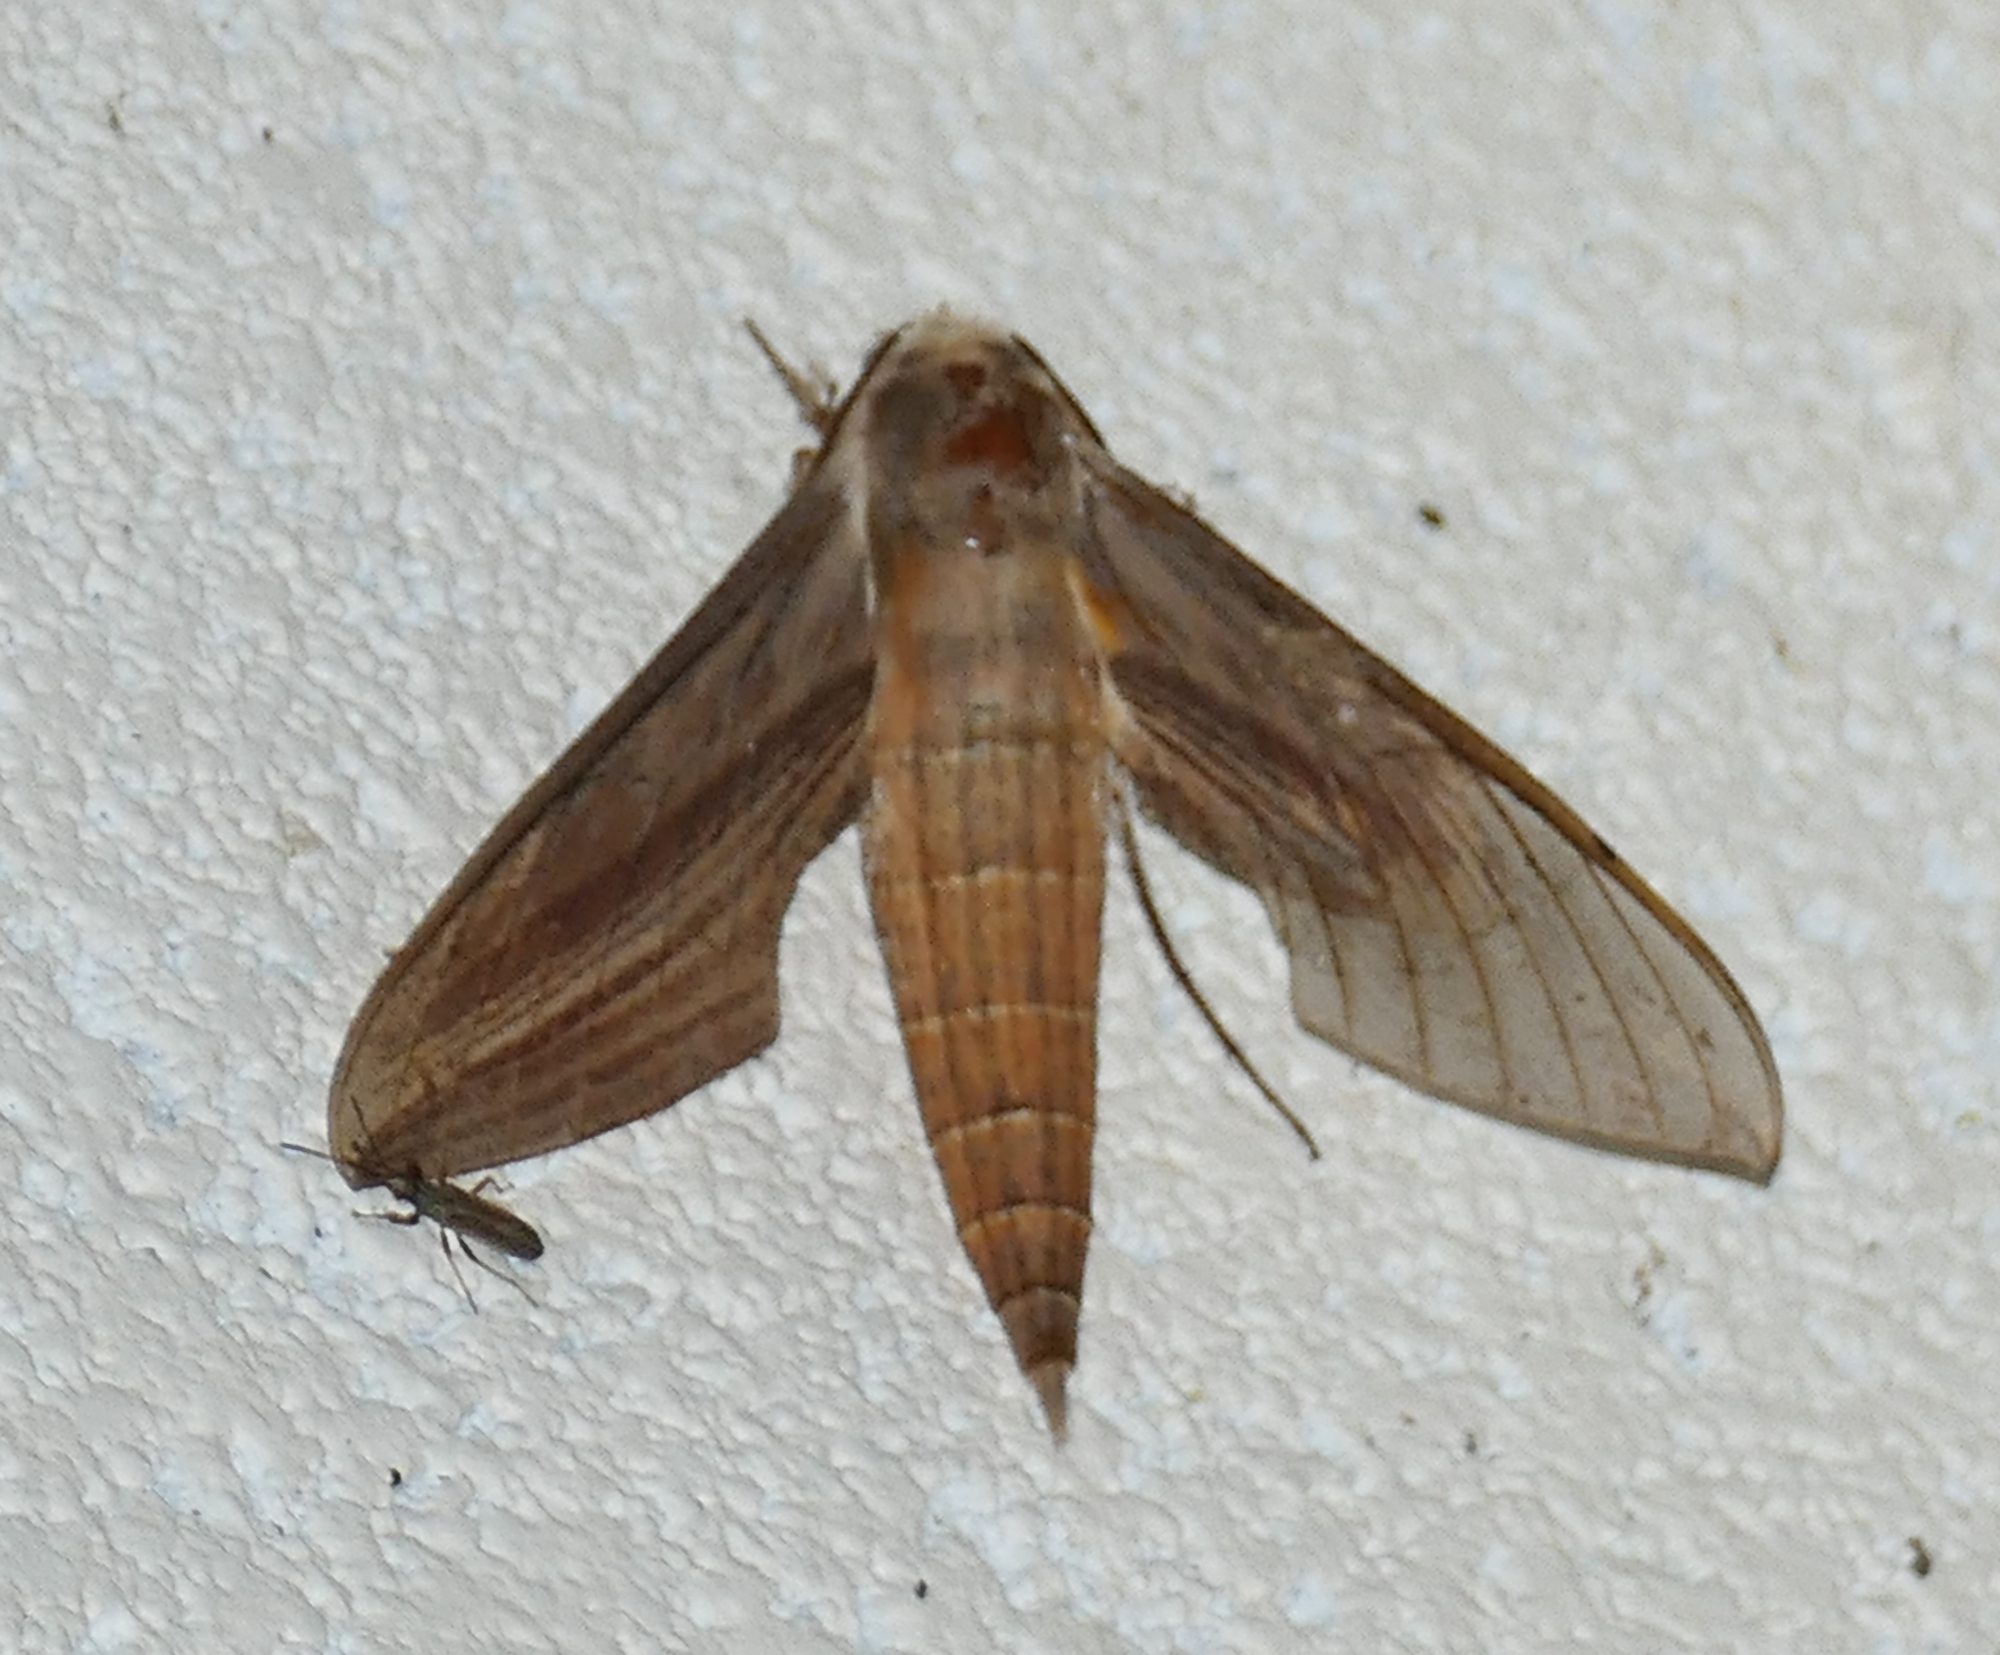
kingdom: Animalia
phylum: Arthropoda
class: Insecta
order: Lepidoptera
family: Sphingidae
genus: Xylophanes
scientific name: Xylophanes tersa
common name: Tersa sphinx
